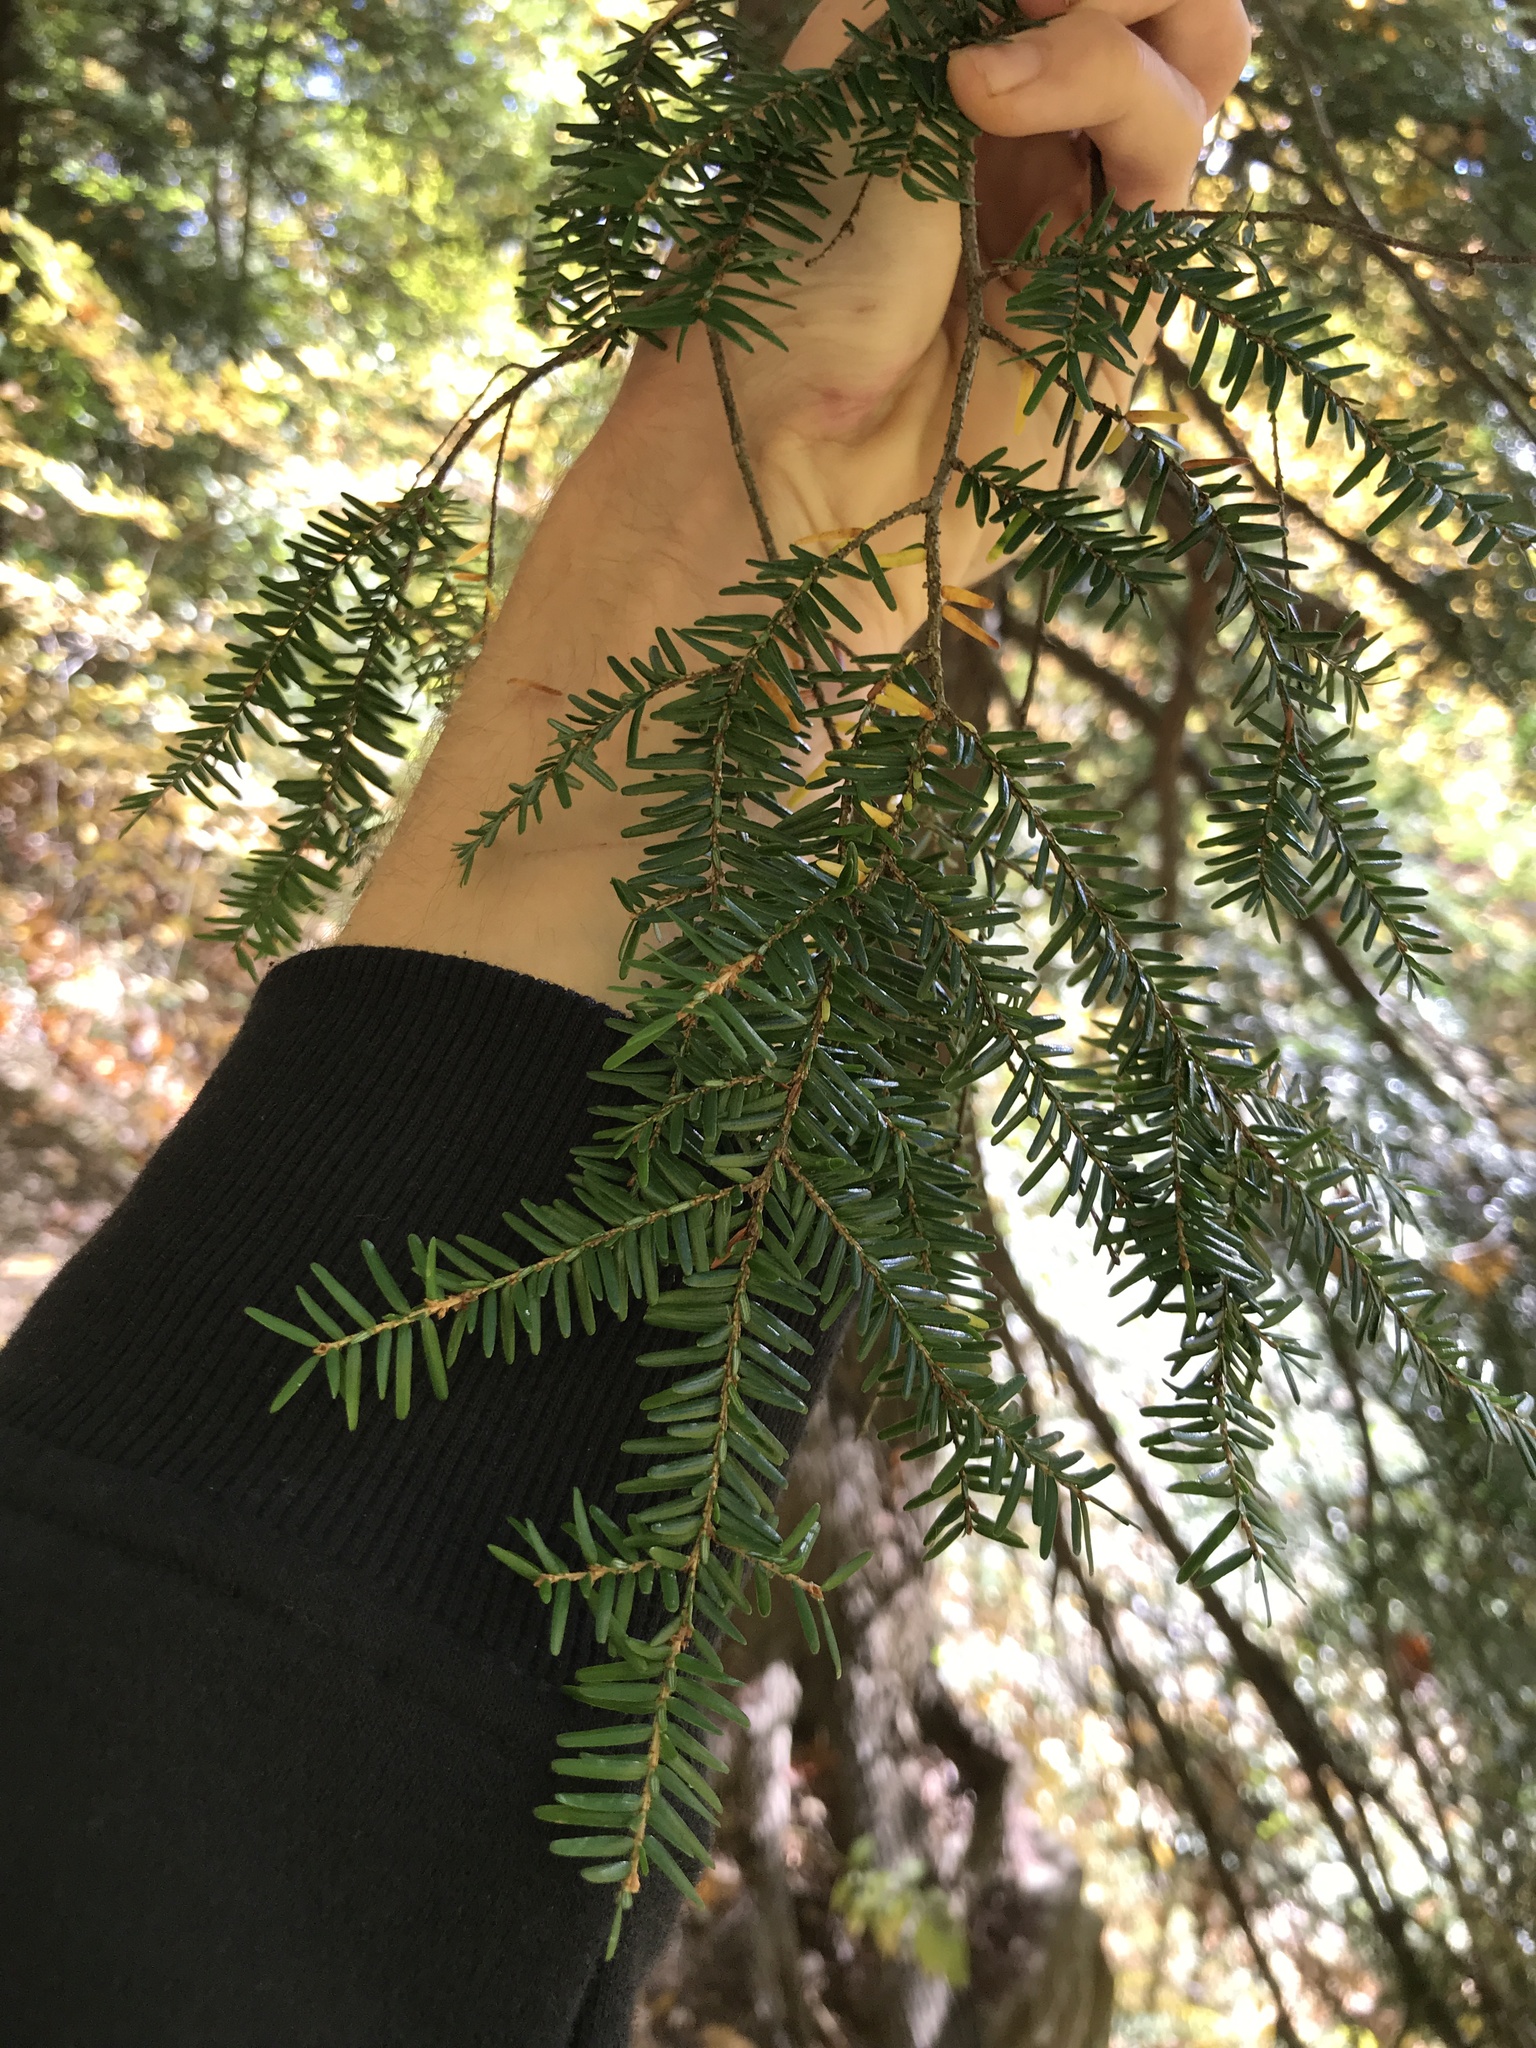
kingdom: Plantae
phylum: Tracheophyta
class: Pinopsida
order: Pinales
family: Pinaceae
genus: Tsuga
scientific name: Tsuga canadensis
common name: Eastern hemlock
